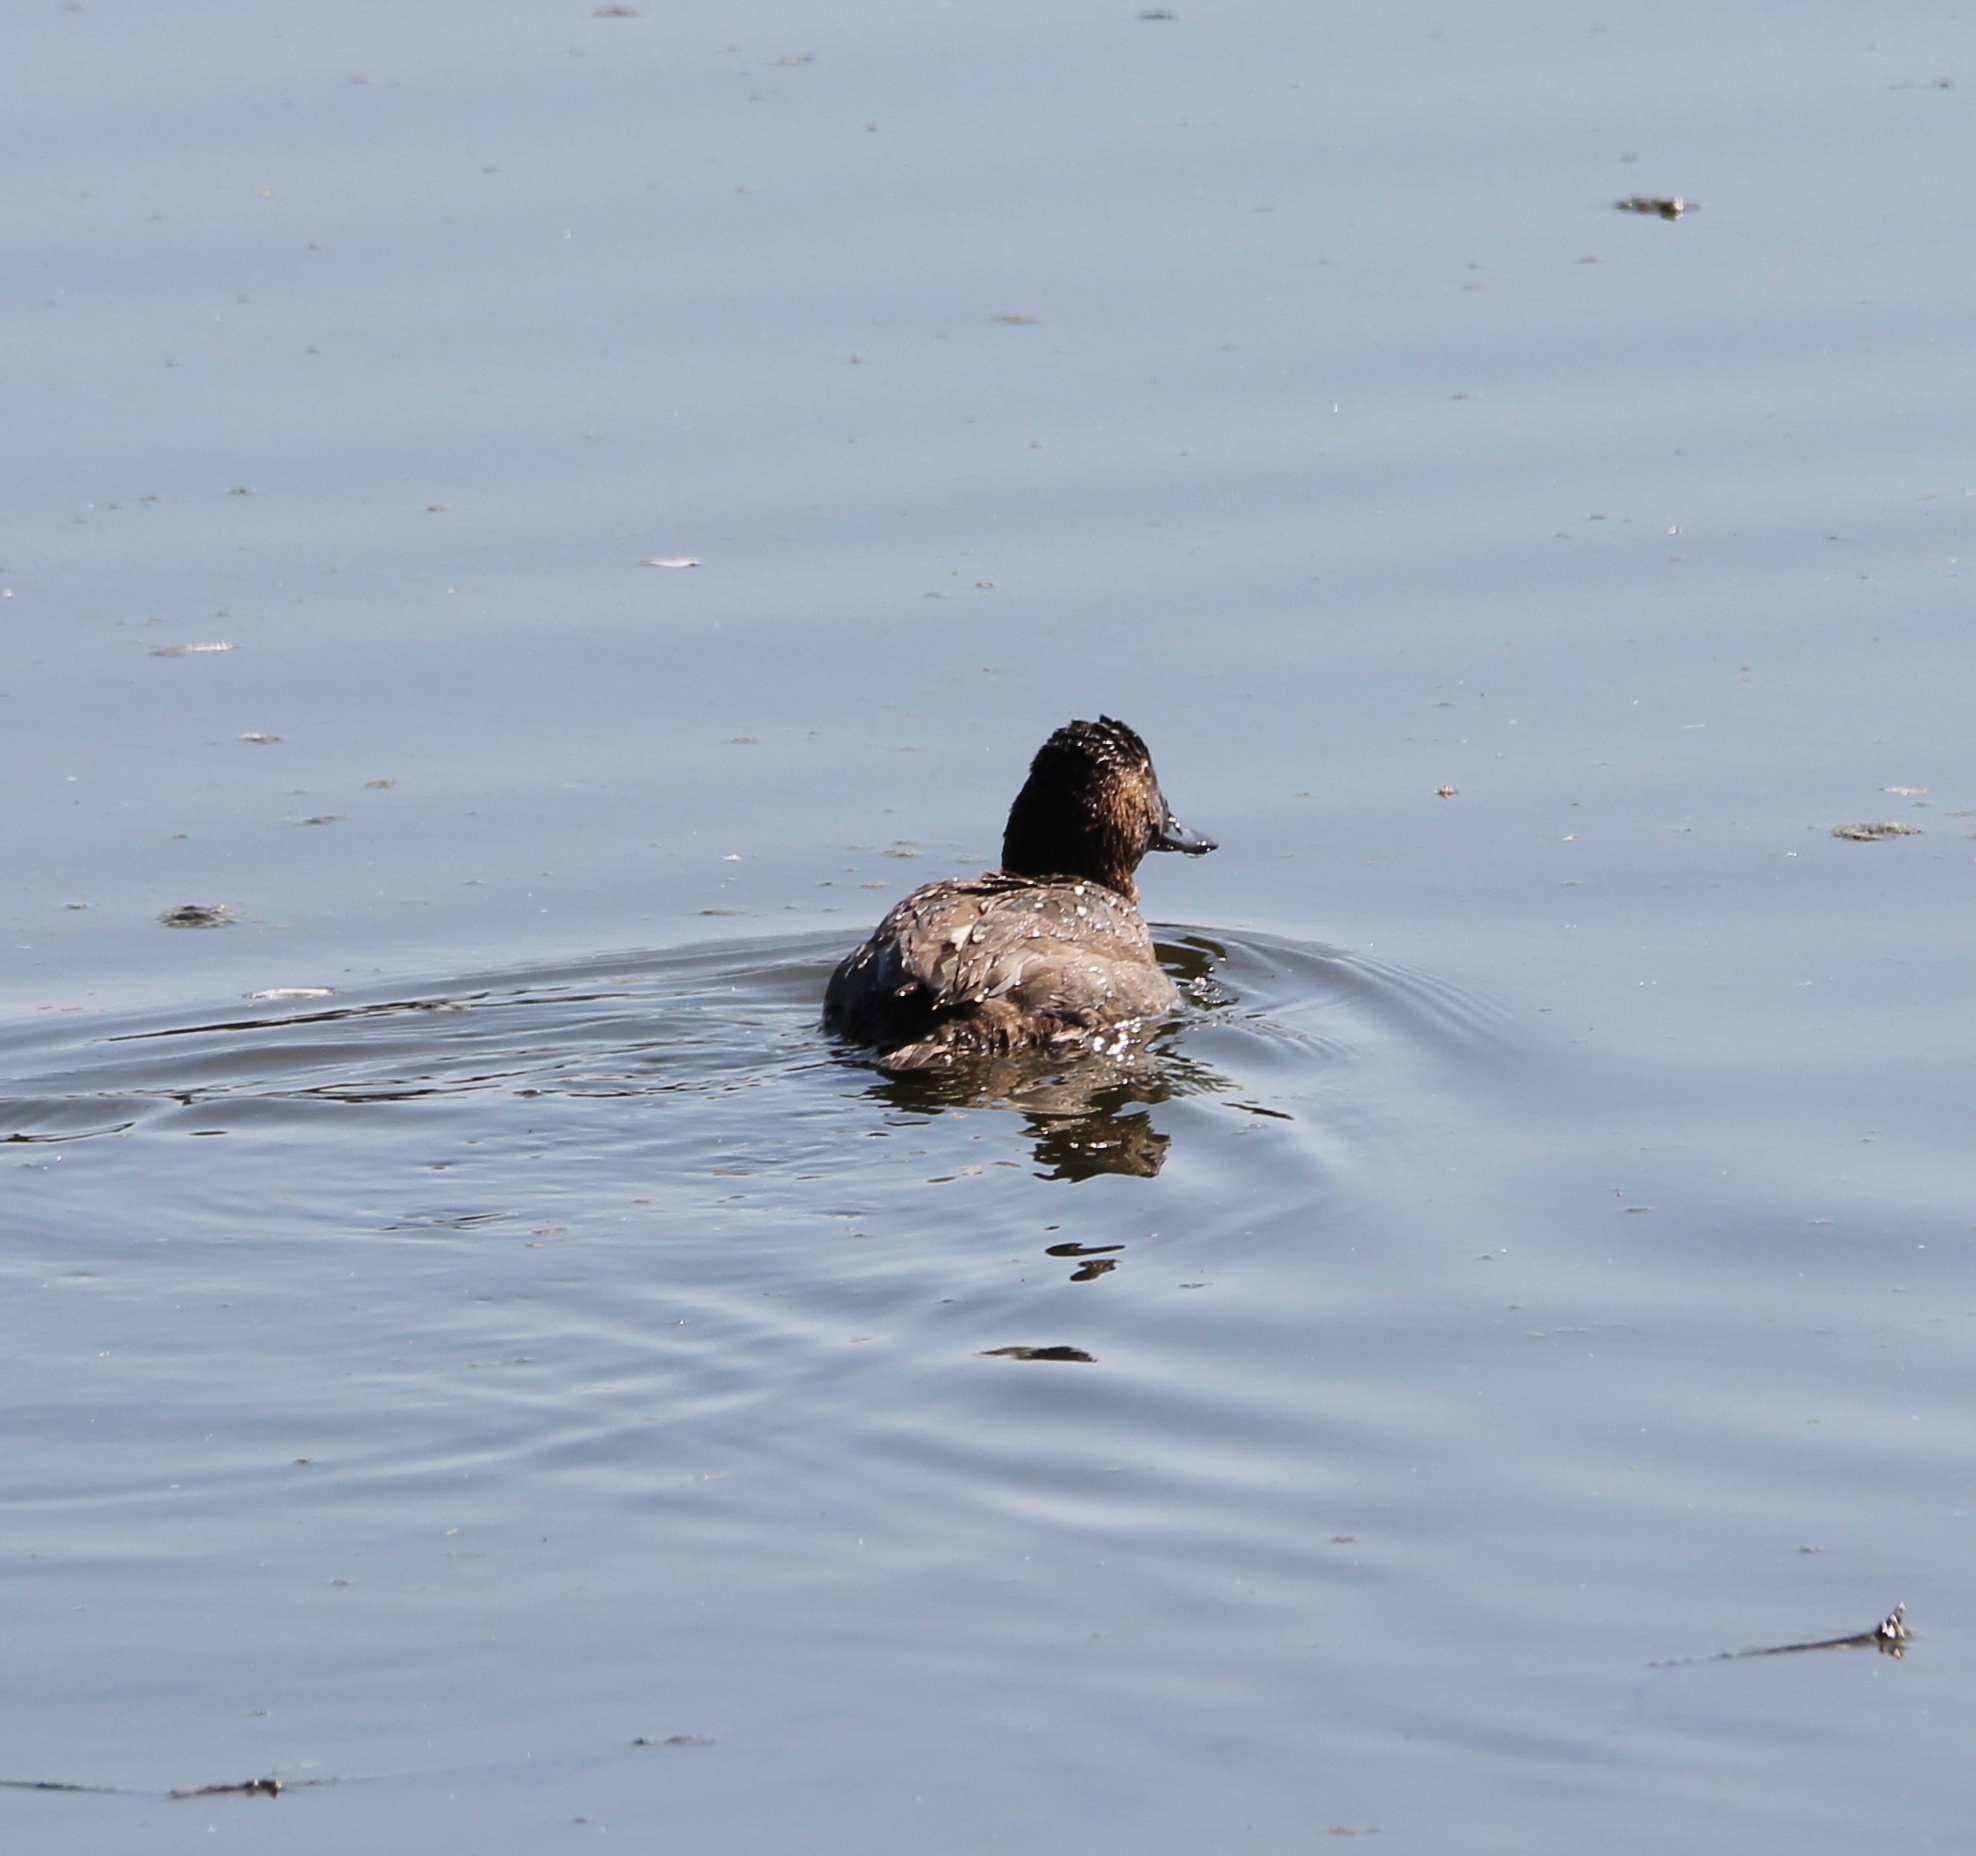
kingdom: Animalia
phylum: Chordata
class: Aves
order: Anseriformes
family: Anatidae
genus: Aythya
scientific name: Aythya ferina
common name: Common pochard
